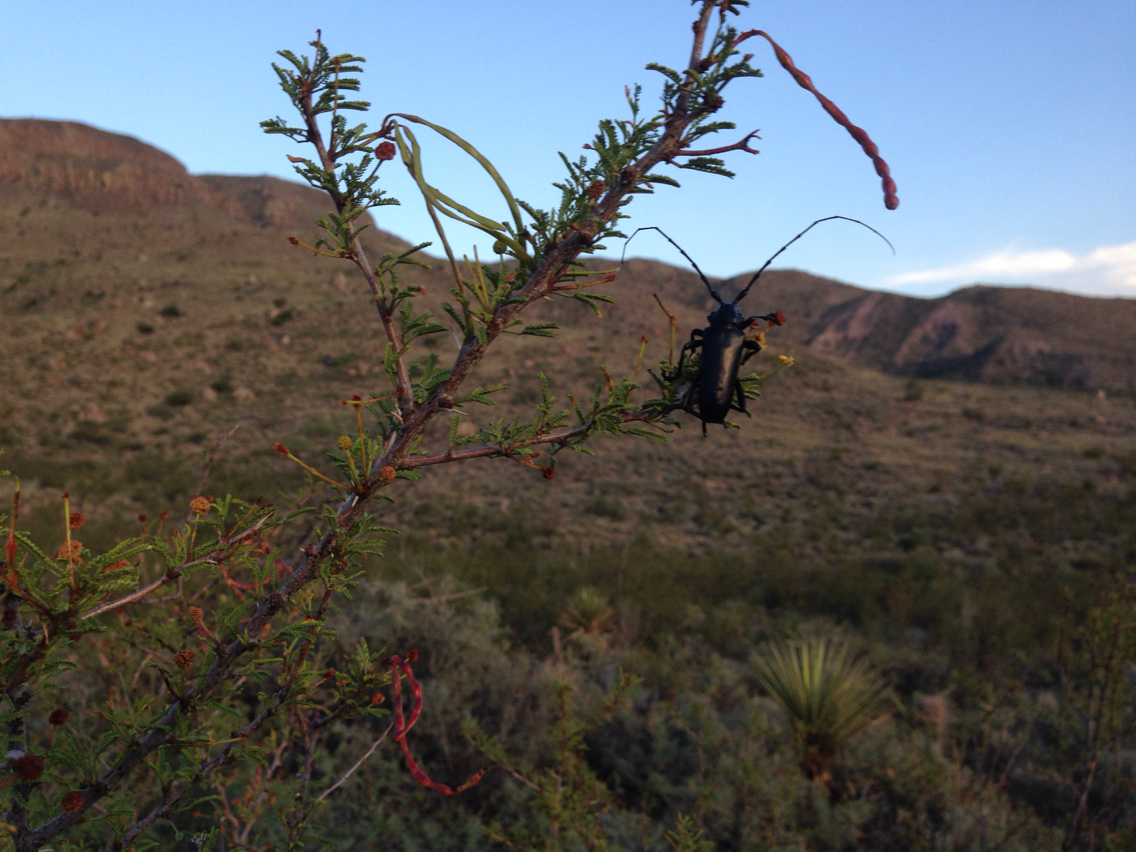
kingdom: Animalia
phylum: Arthropoda
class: Insecta
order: Coleoptera
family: Cerambycidae
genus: Stenaspis
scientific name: Stenaspis solitaria
